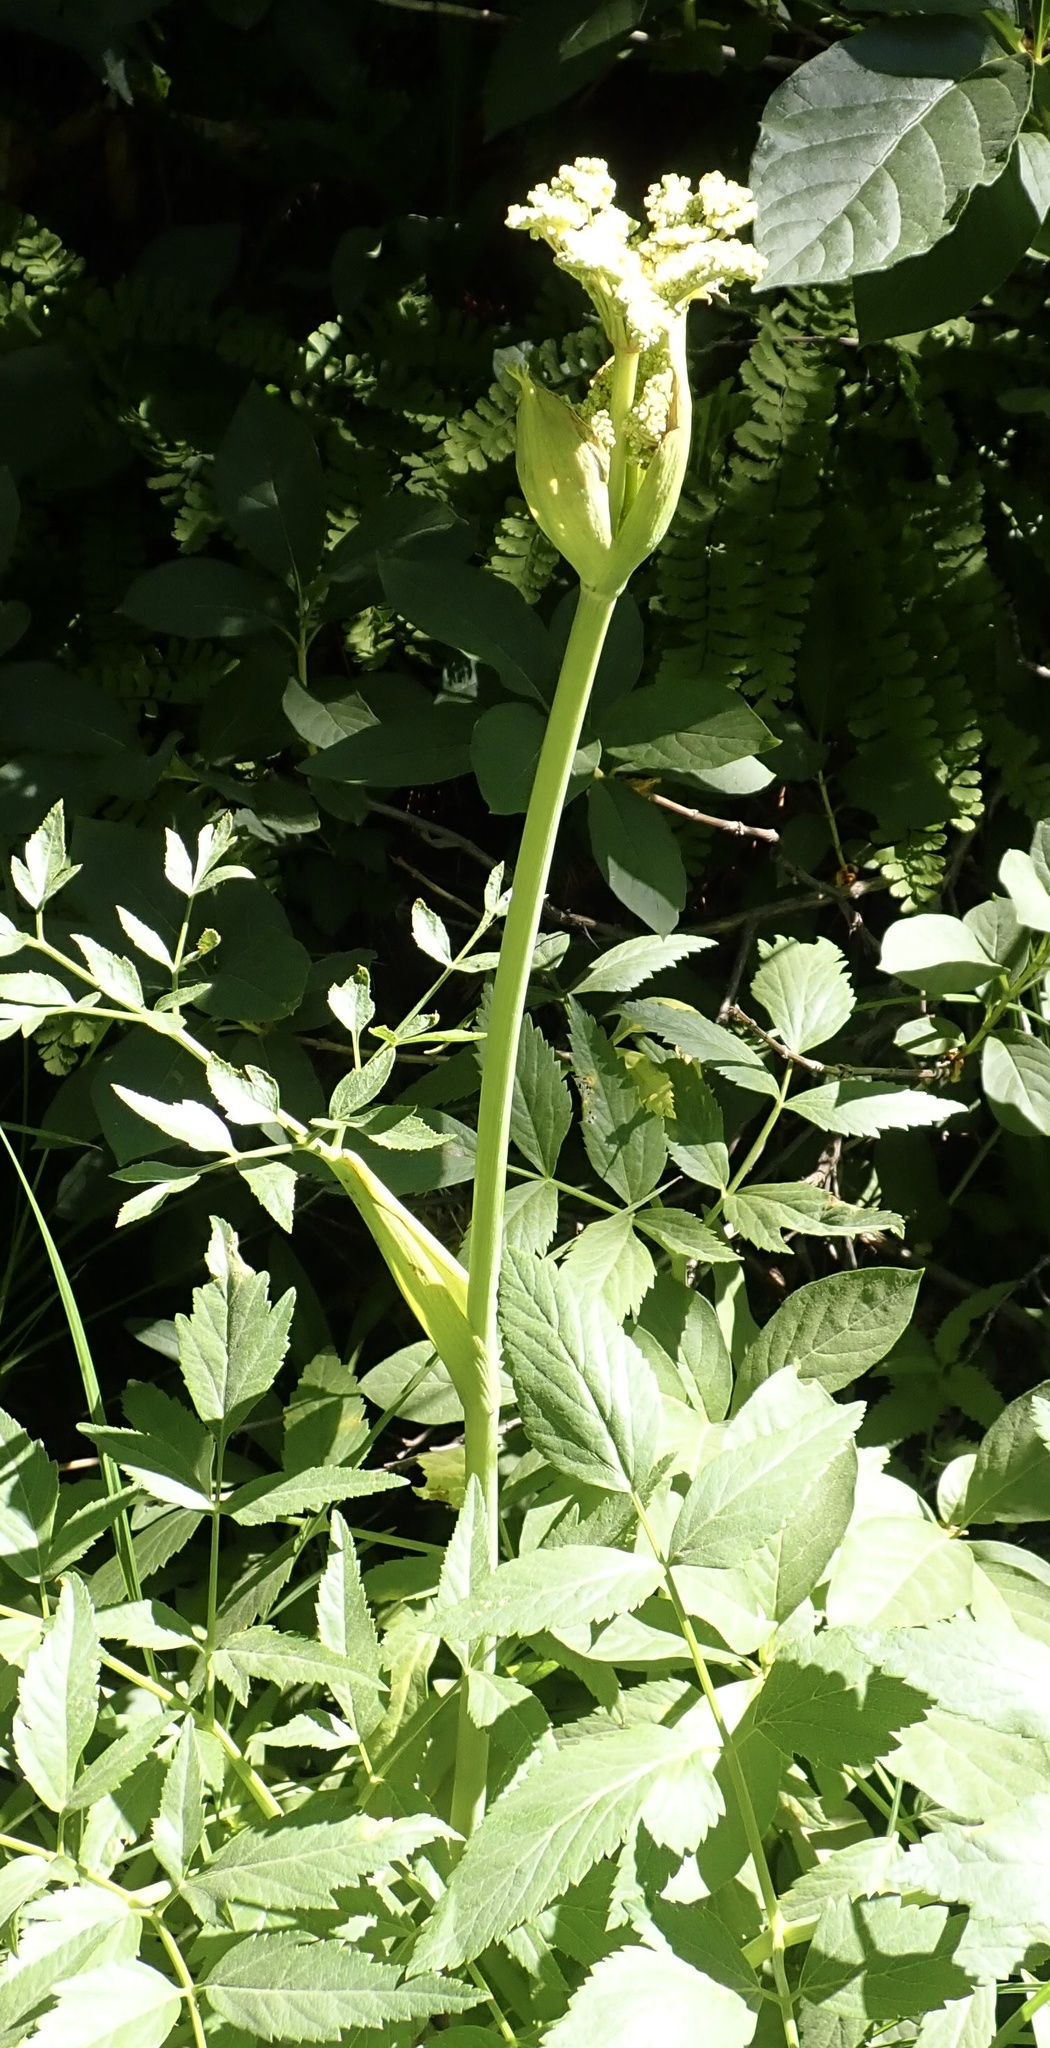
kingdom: Plantae
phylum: Tracheophyta
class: Magnoliopsida
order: Apiales
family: Apiaceae
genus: Angelica
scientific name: Angelica arguta
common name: Lyall's angelica
